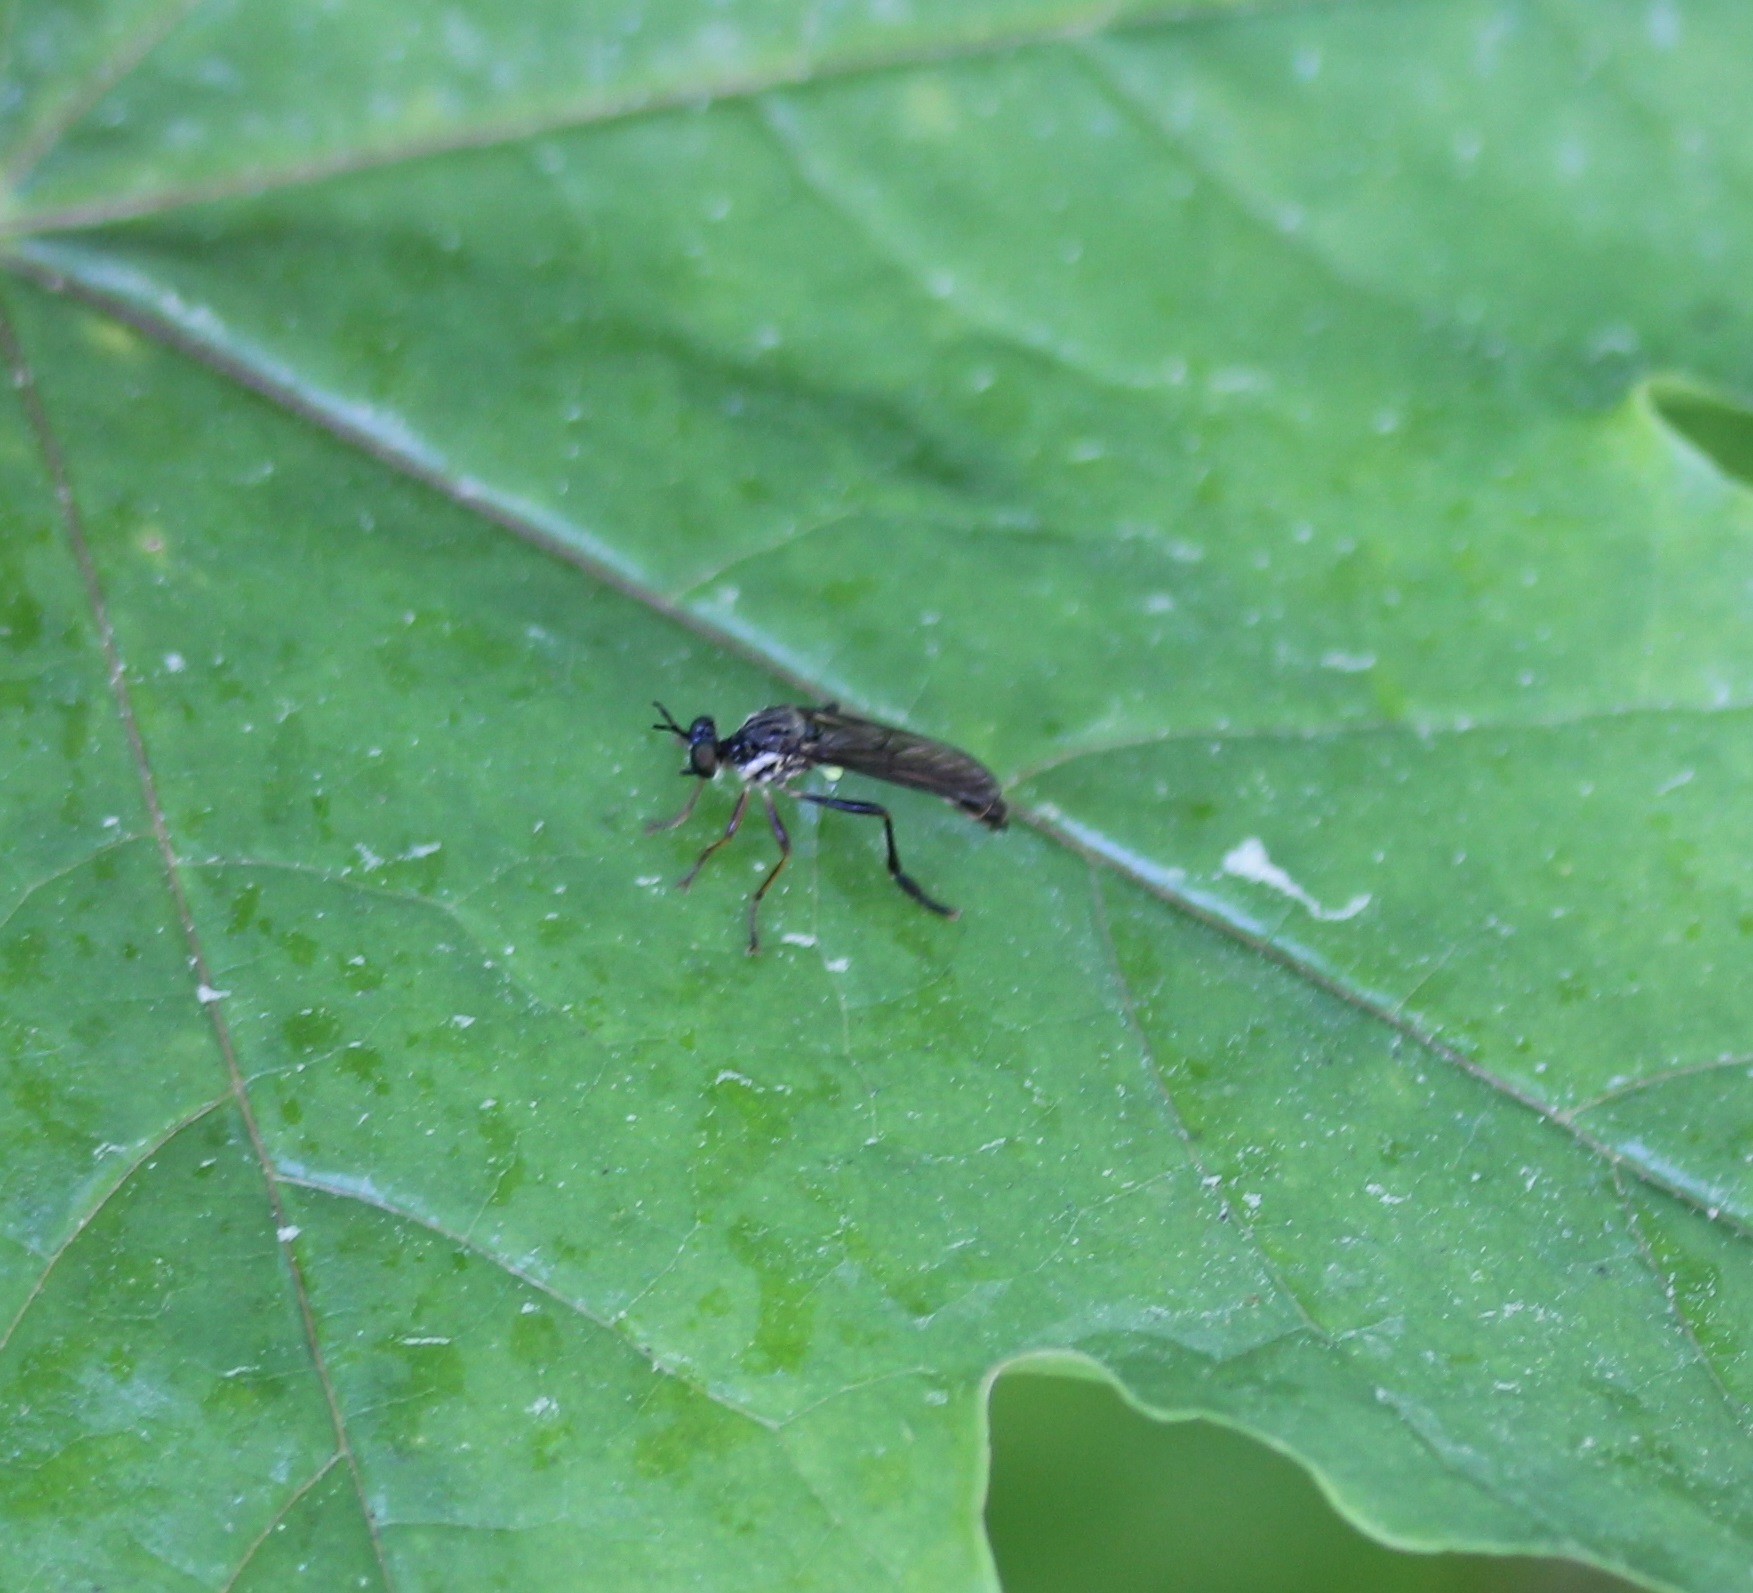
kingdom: Animalia
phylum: Arthropoda
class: Insecta
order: Diptera
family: Asilidae
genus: Dioctria
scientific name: Dioctria hyalipennis
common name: Stripe-legged robberfly
